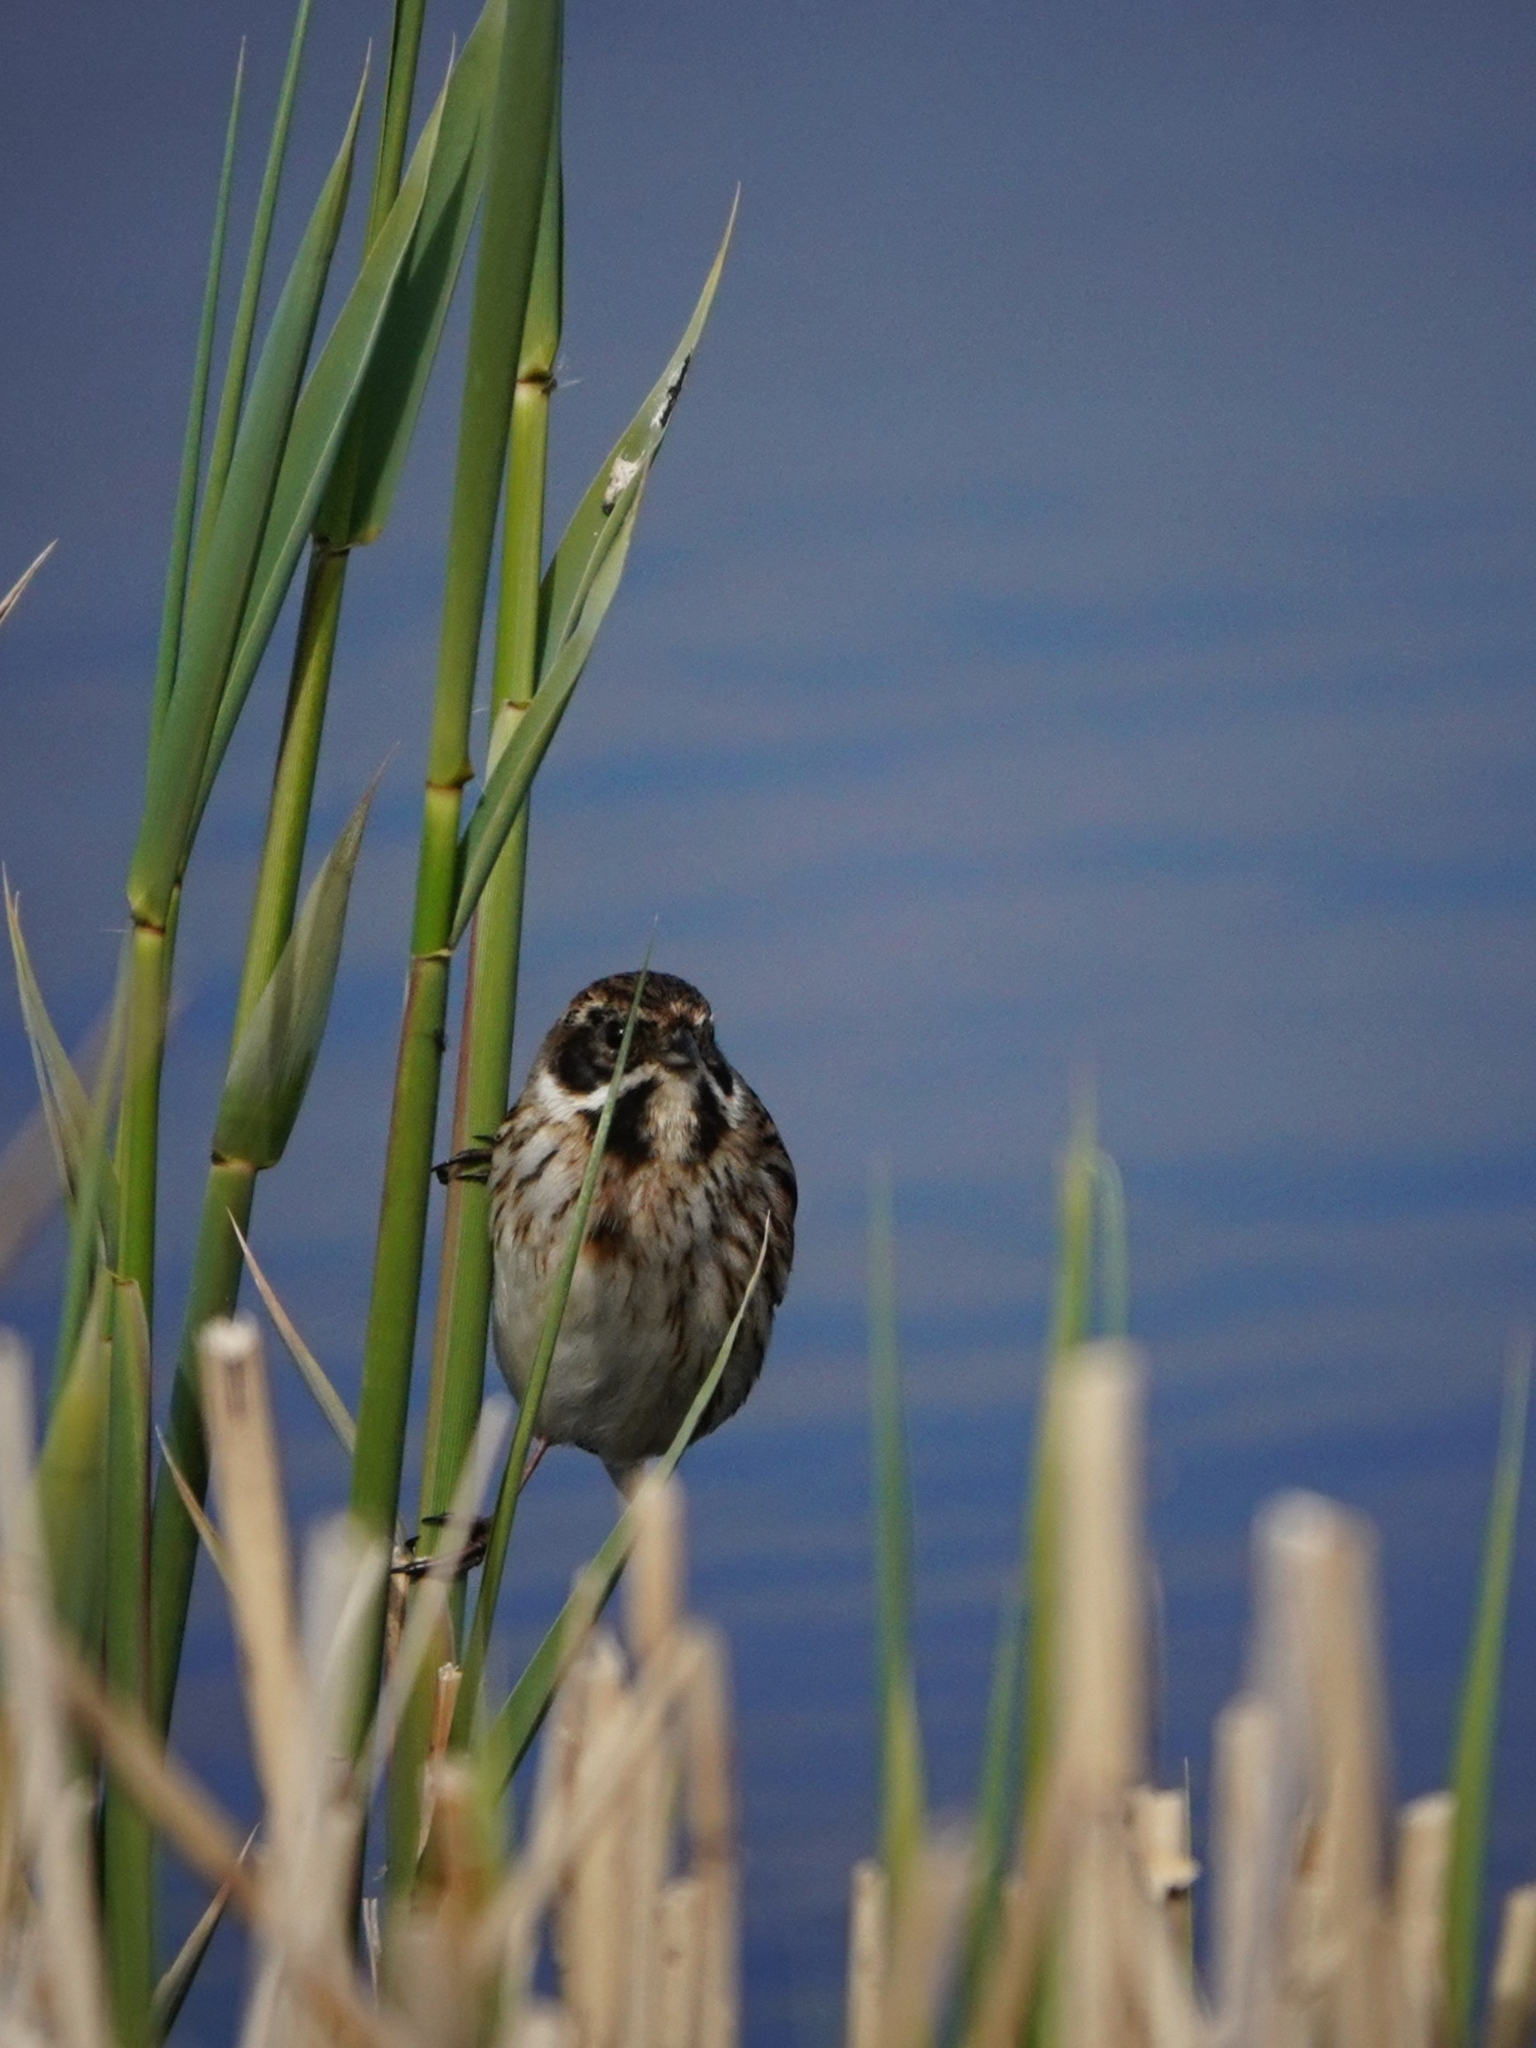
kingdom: Animalia
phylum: Chordata
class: Aves
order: Passeriformes
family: Emberizidae
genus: Emberiza
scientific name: Emberiza schoeniclus
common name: Reed bunting
